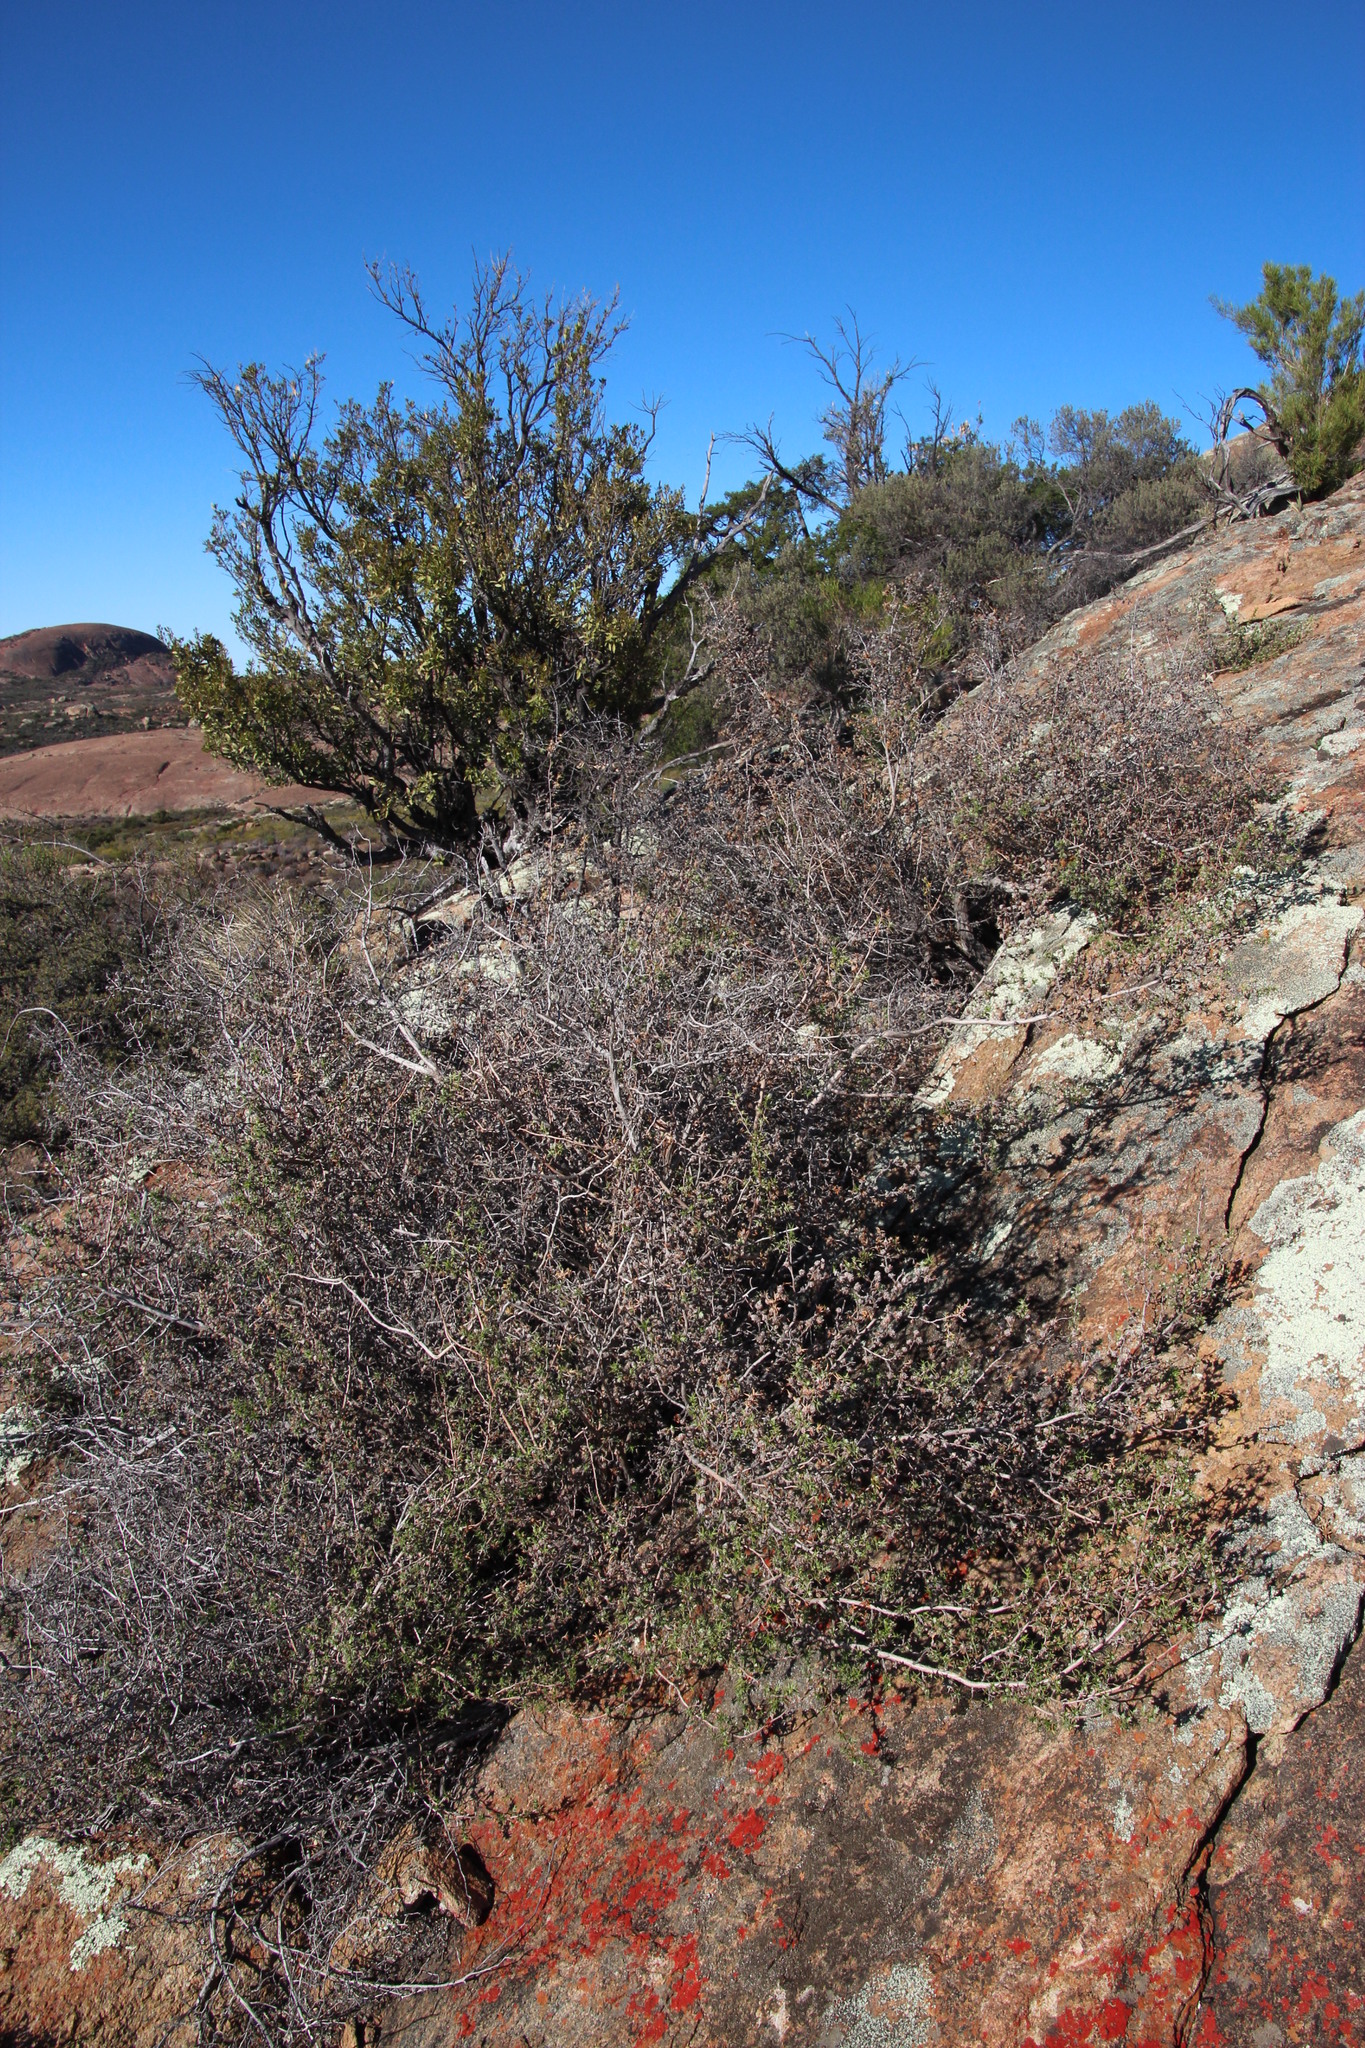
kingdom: Plantae
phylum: Tracheophyta
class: Magnoliopsida
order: Rosales
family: Rosaceae
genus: Cliffortia
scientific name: Cliffortia ruscifolia
